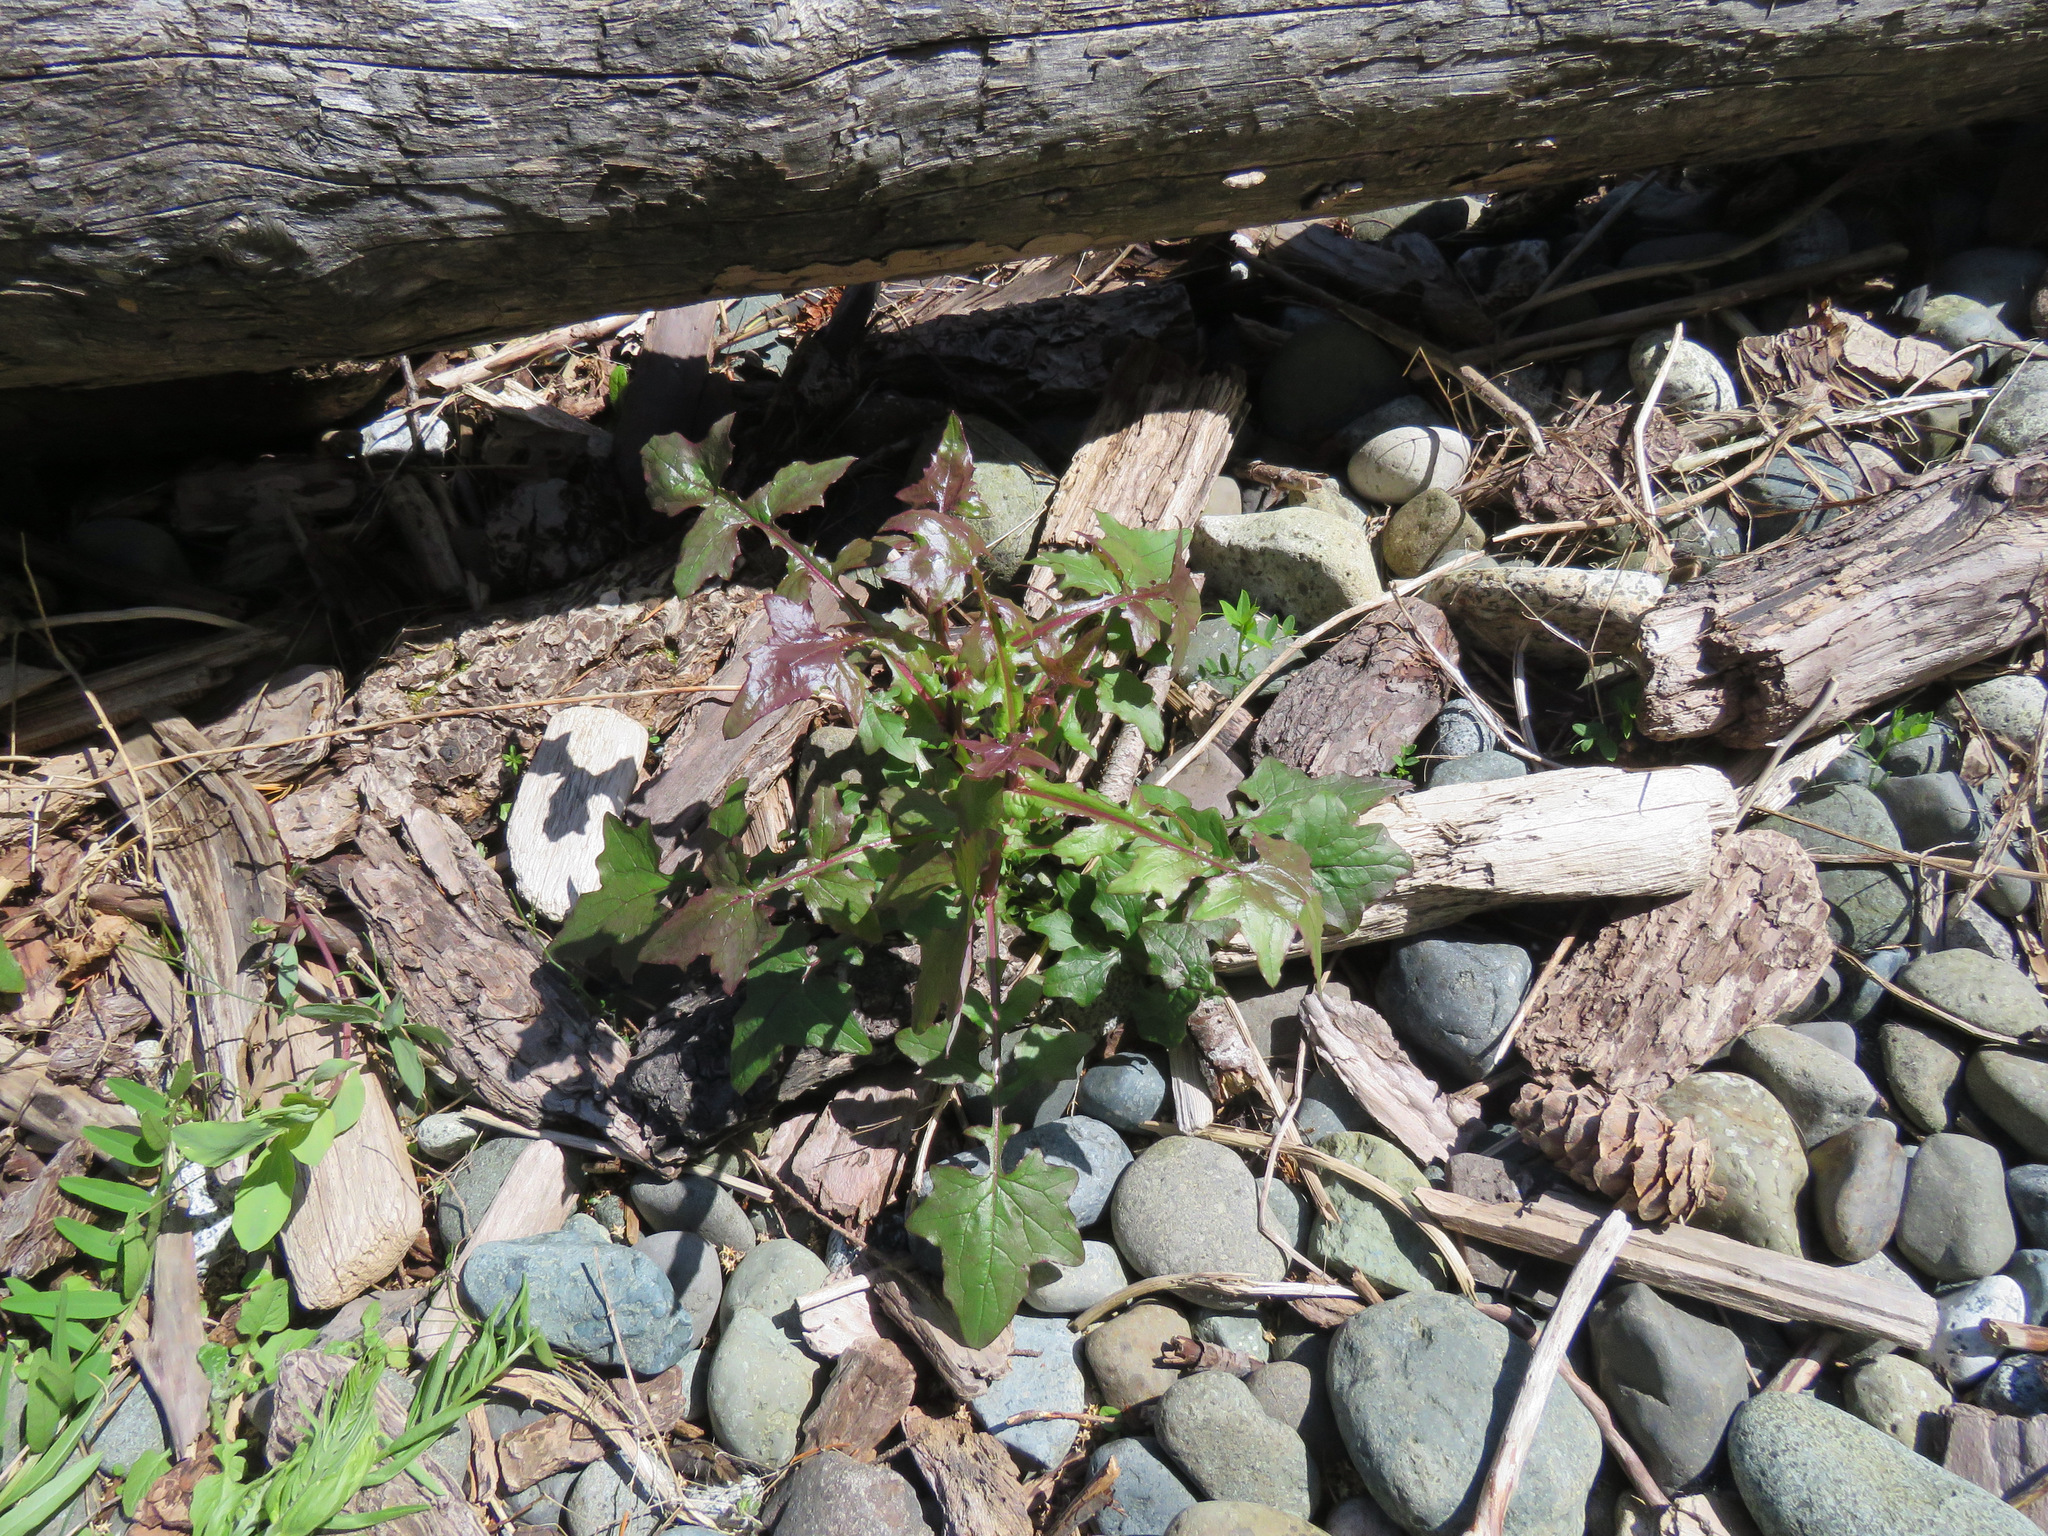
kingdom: Plantae
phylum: Tracheophyta
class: Magnoliopsida
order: Asterales
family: Asteraceae
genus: Mycelis
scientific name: Mycelis muralis
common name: Wall lettuce
